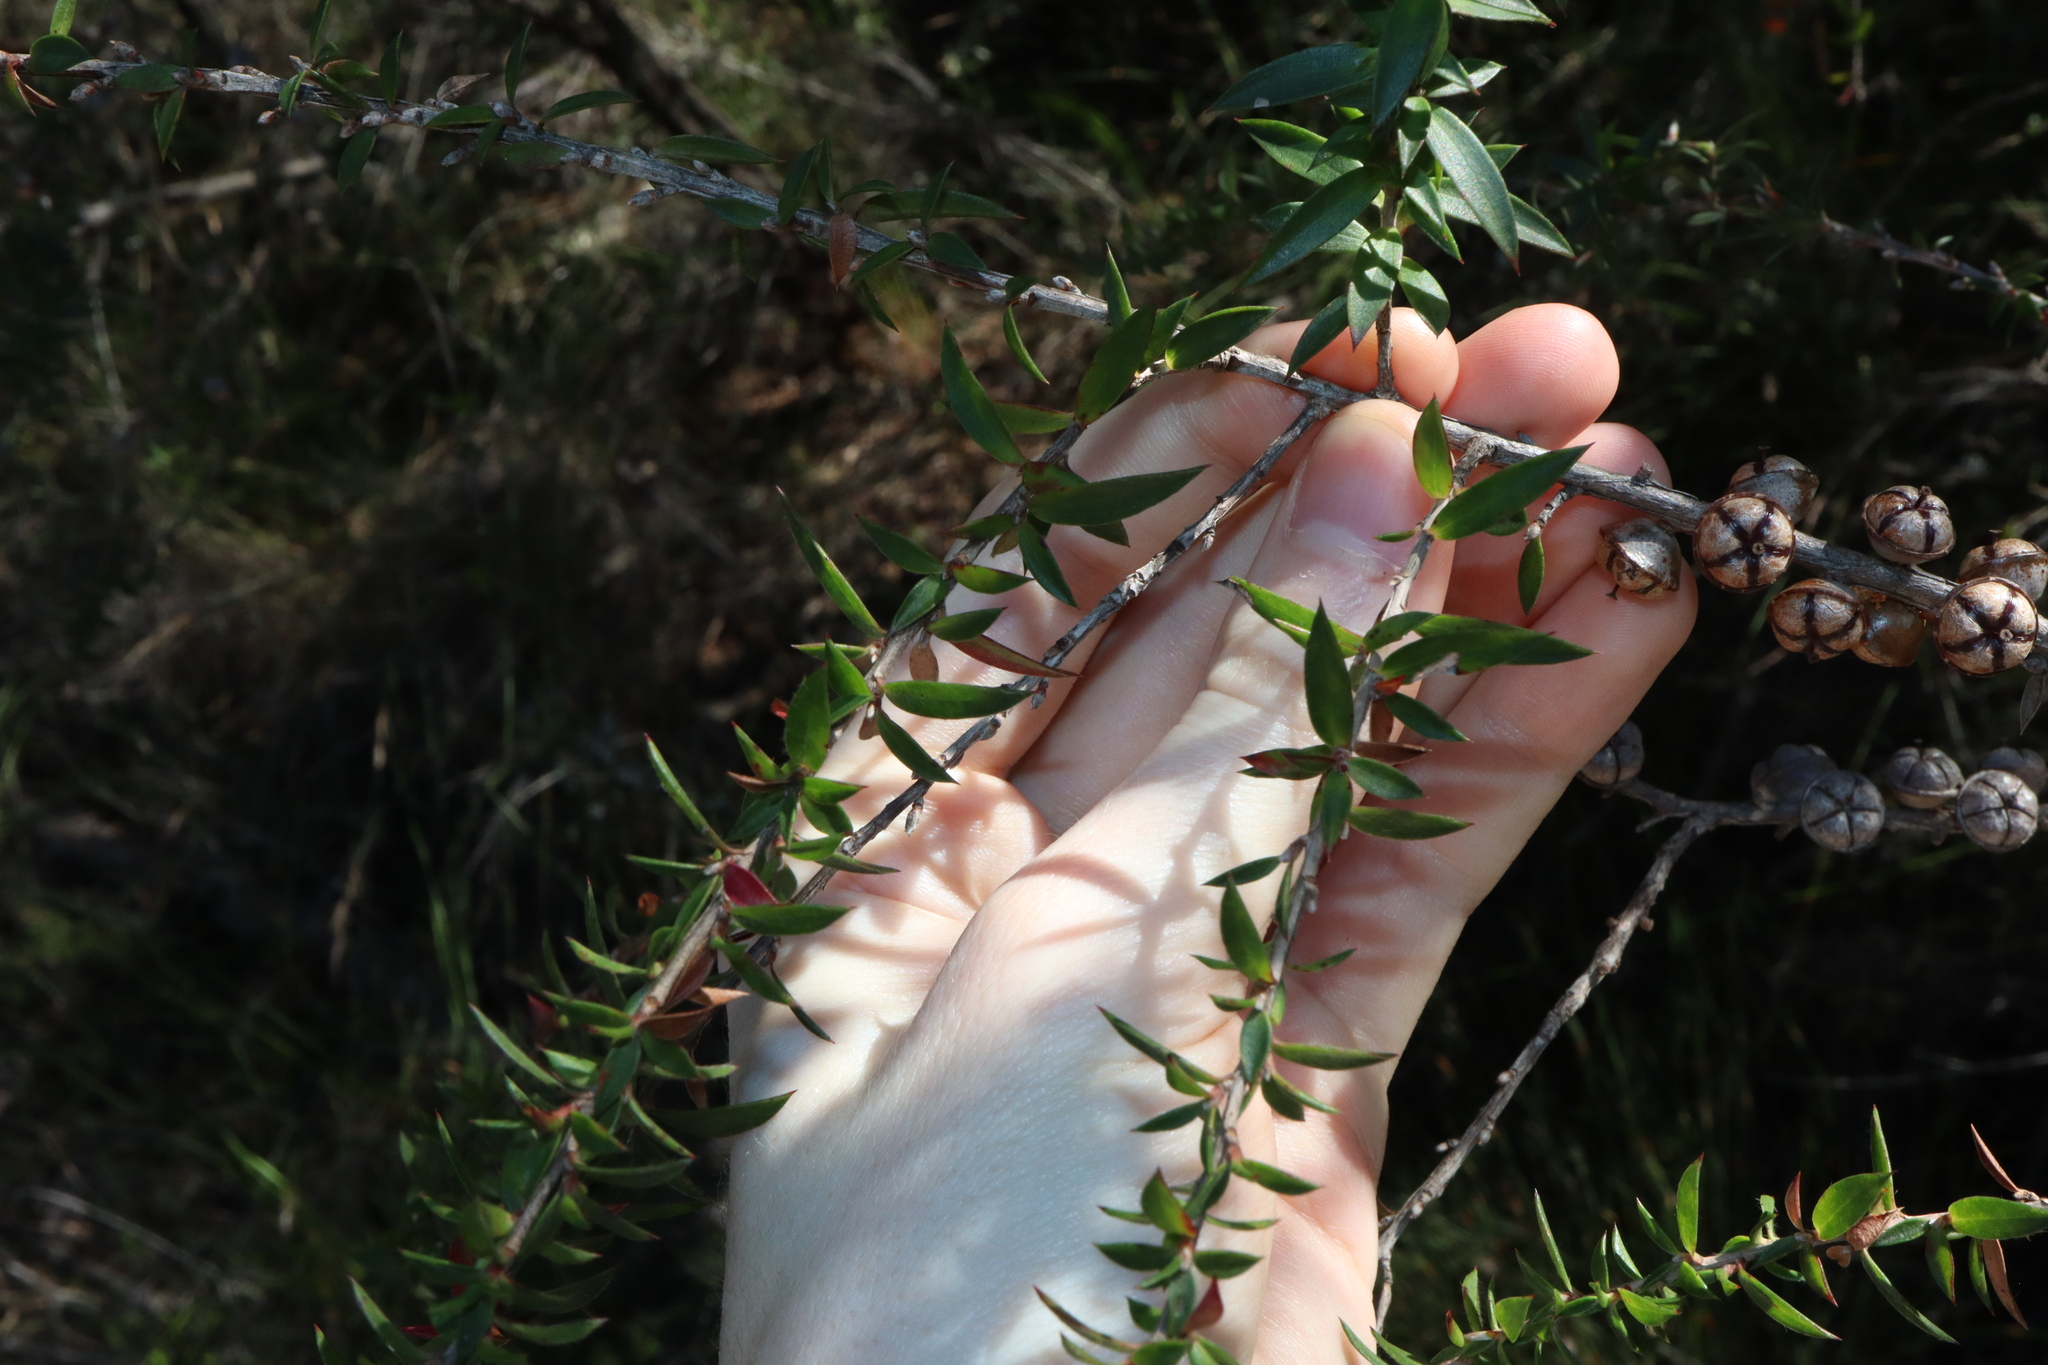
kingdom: Plantae
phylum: Tracheophyta
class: Magnoliopsida
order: Myrtales
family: Myrtaceae
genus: Leptospermum
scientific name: Leptospermum squarrosum
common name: Peach-blossom teatree
